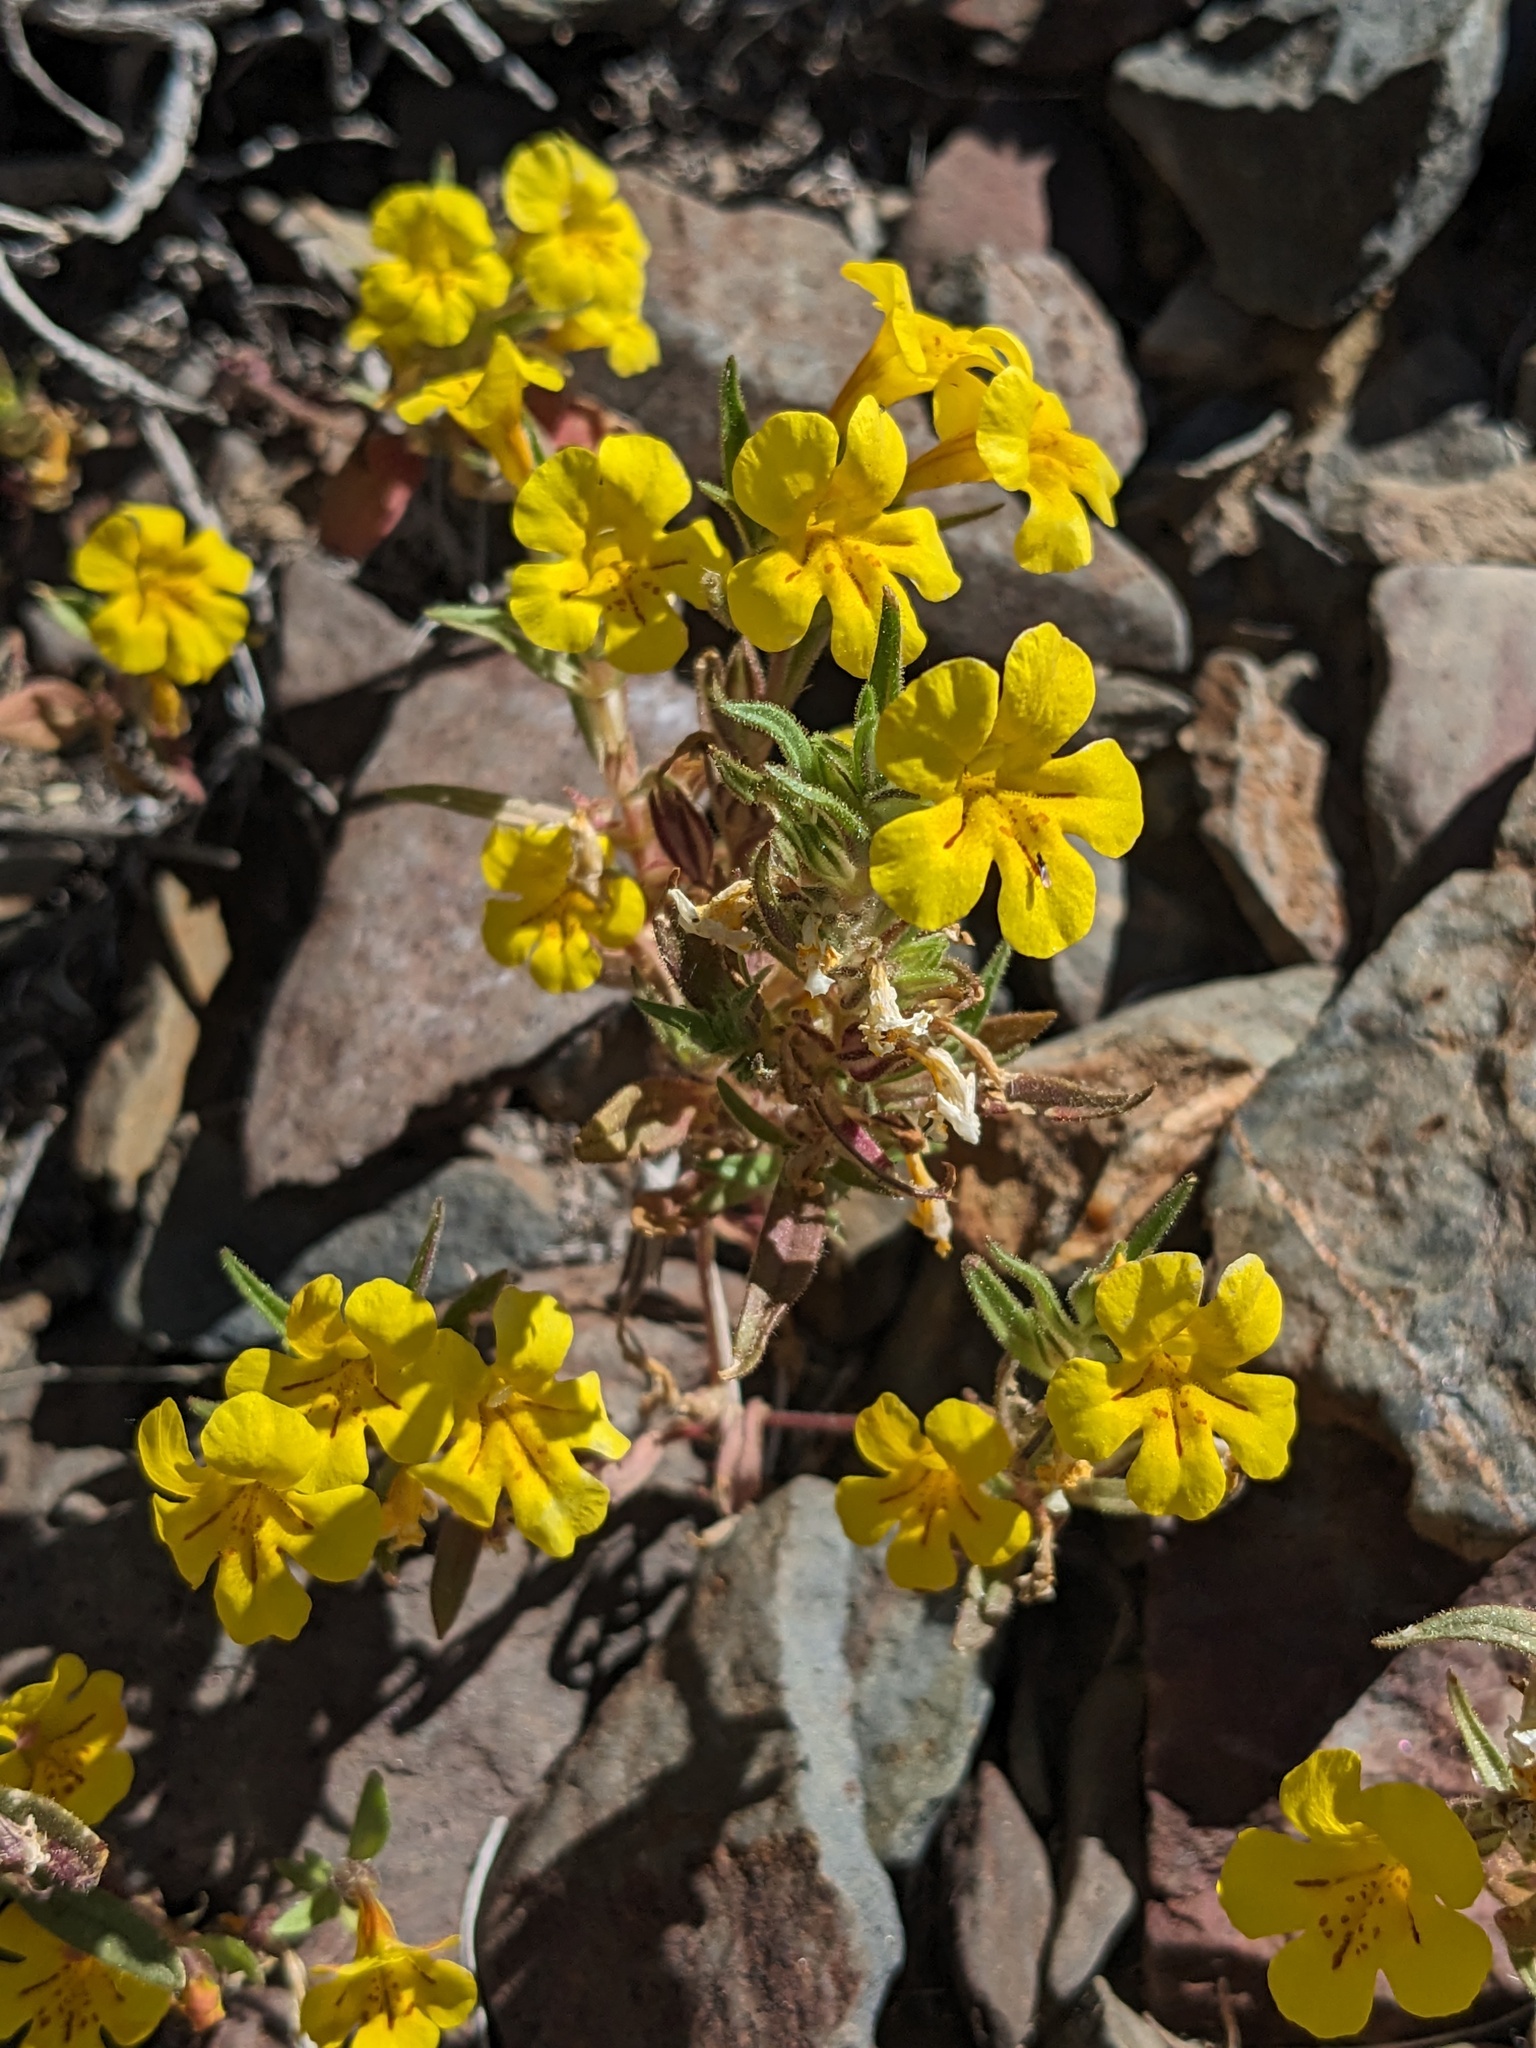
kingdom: Plantae
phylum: Tracheophyta
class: Magnoliopsida
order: Lamiales
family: Phrymaceae
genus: Diplacus
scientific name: Diplacus mephiticus
